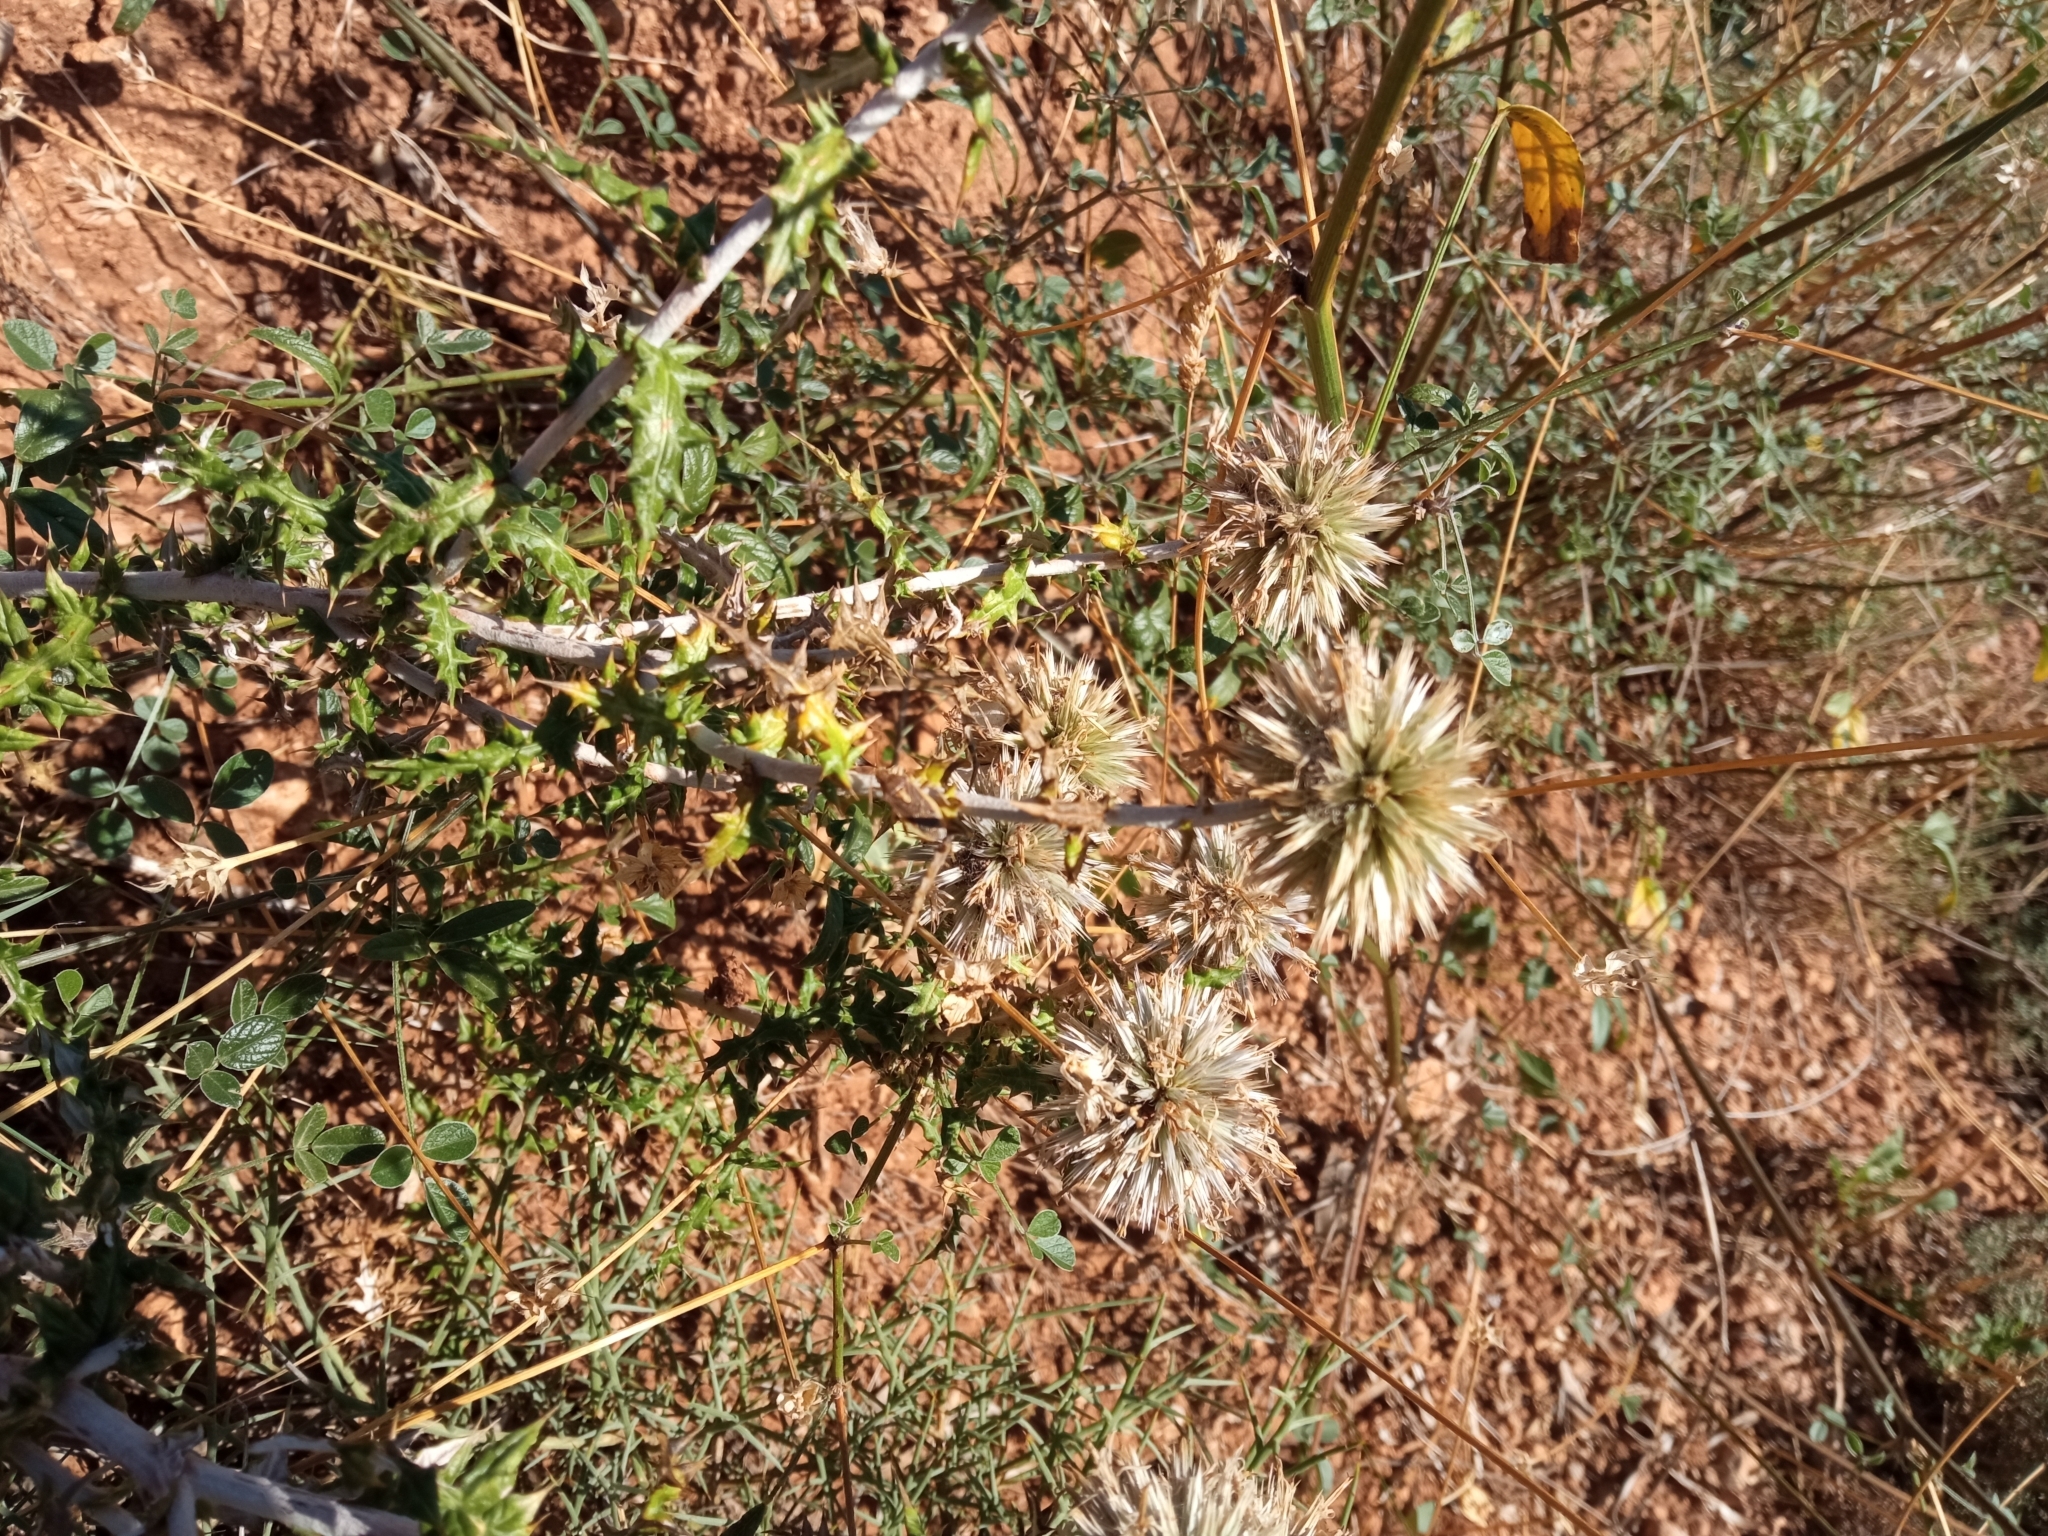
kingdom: Plantae
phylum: Tracheophyta
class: Magnoliopsida
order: Asterales
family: Asteraceae
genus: Echinops
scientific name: Echinops ritro
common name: Globe thistle
